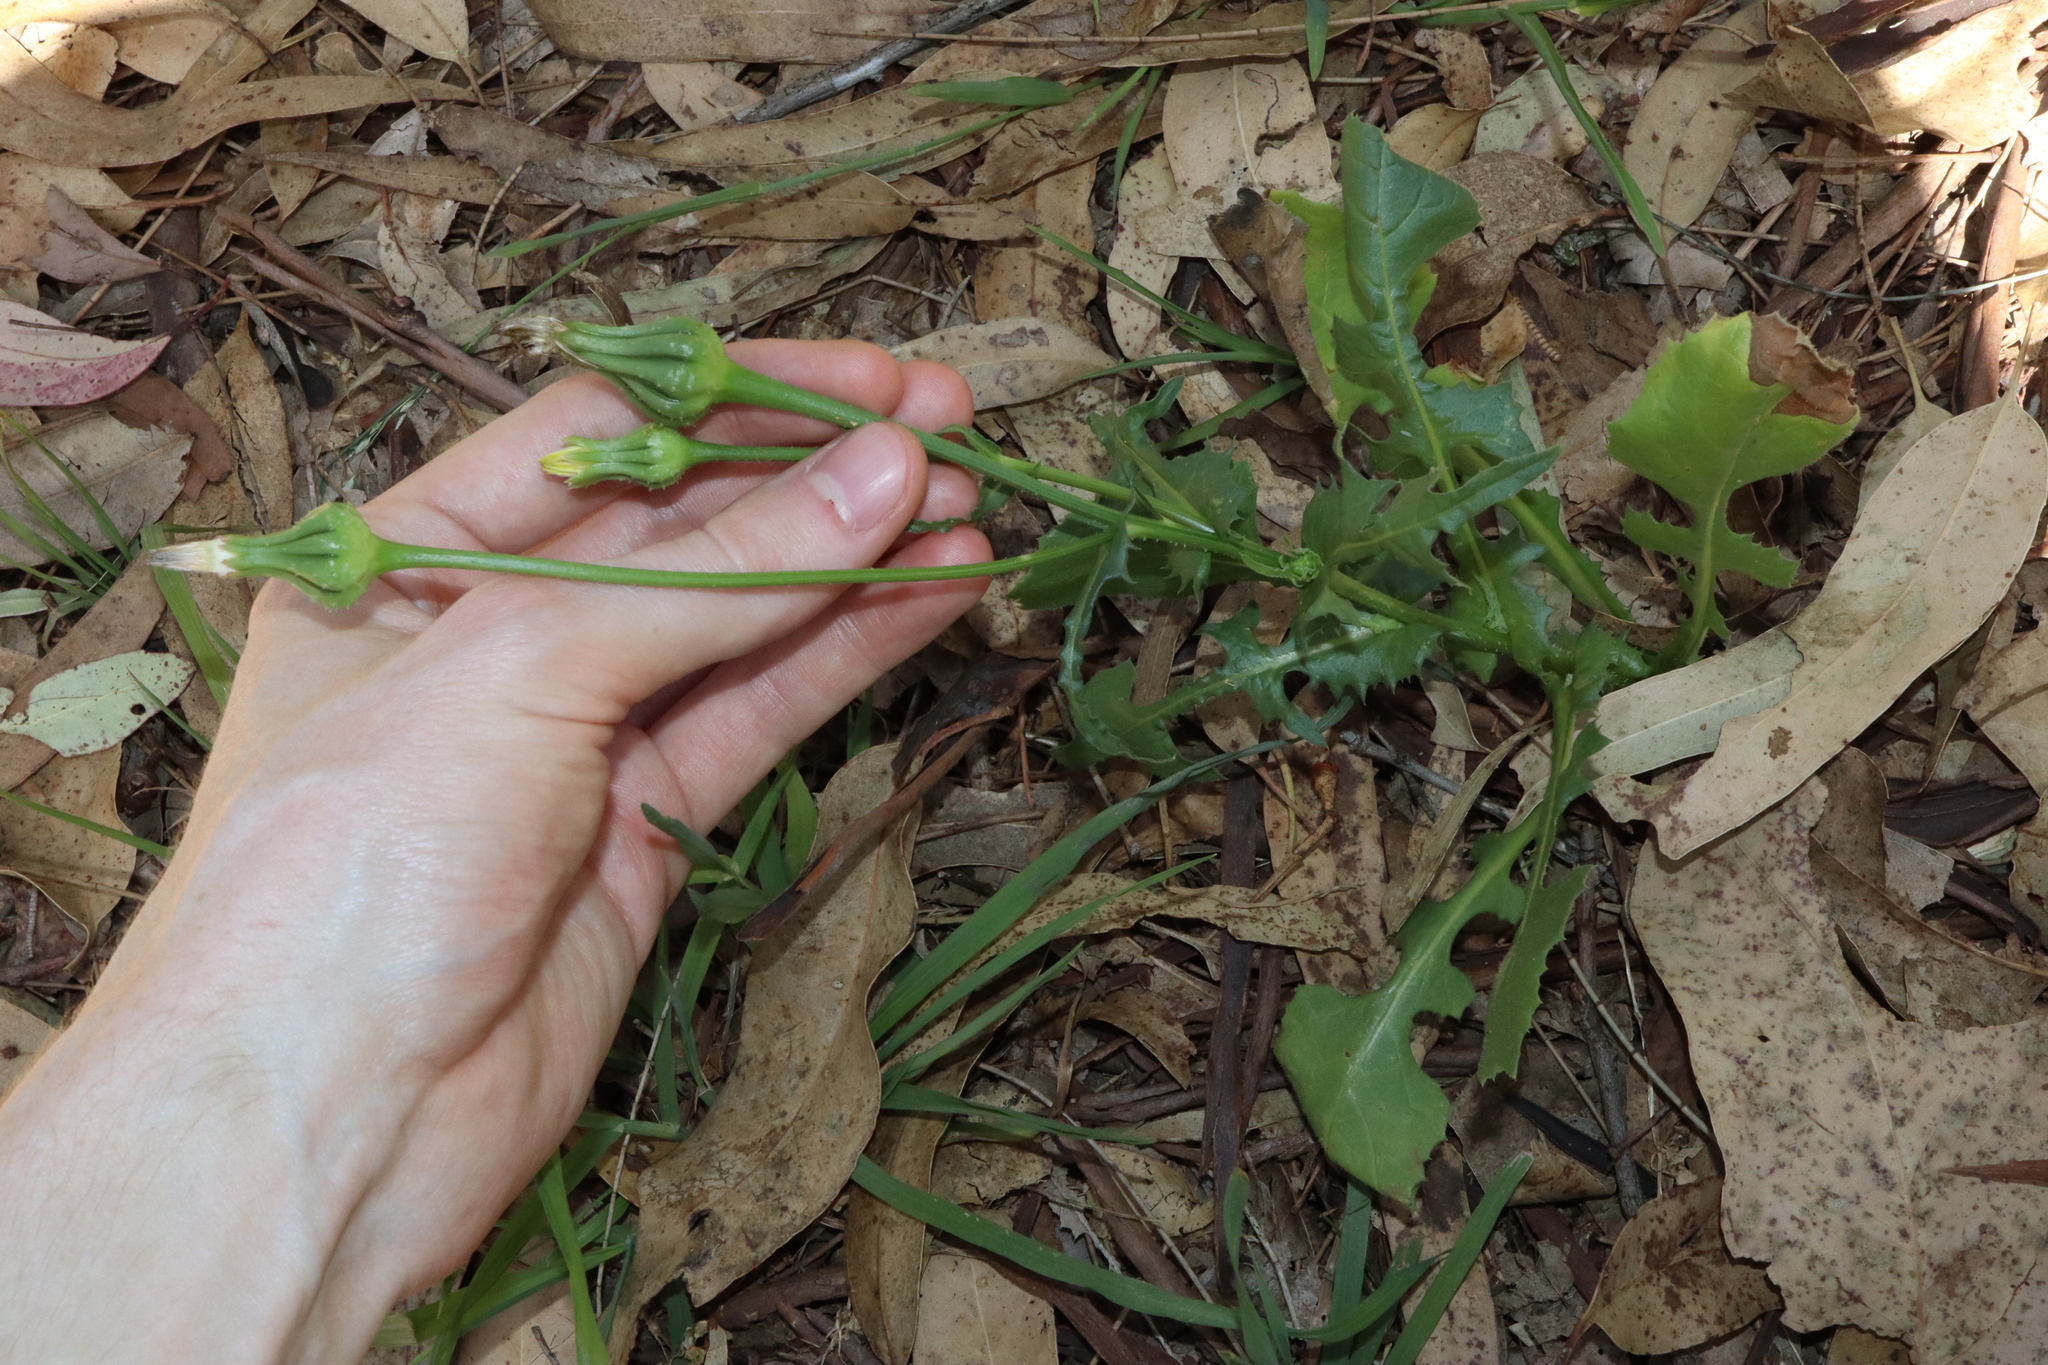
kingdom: Plantae
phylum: Tracheophyta
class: Magnoliopsida
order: Asterales
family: Asteraceae
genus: Urospermum
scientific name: Urospermum picroides
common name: False hawkbit
